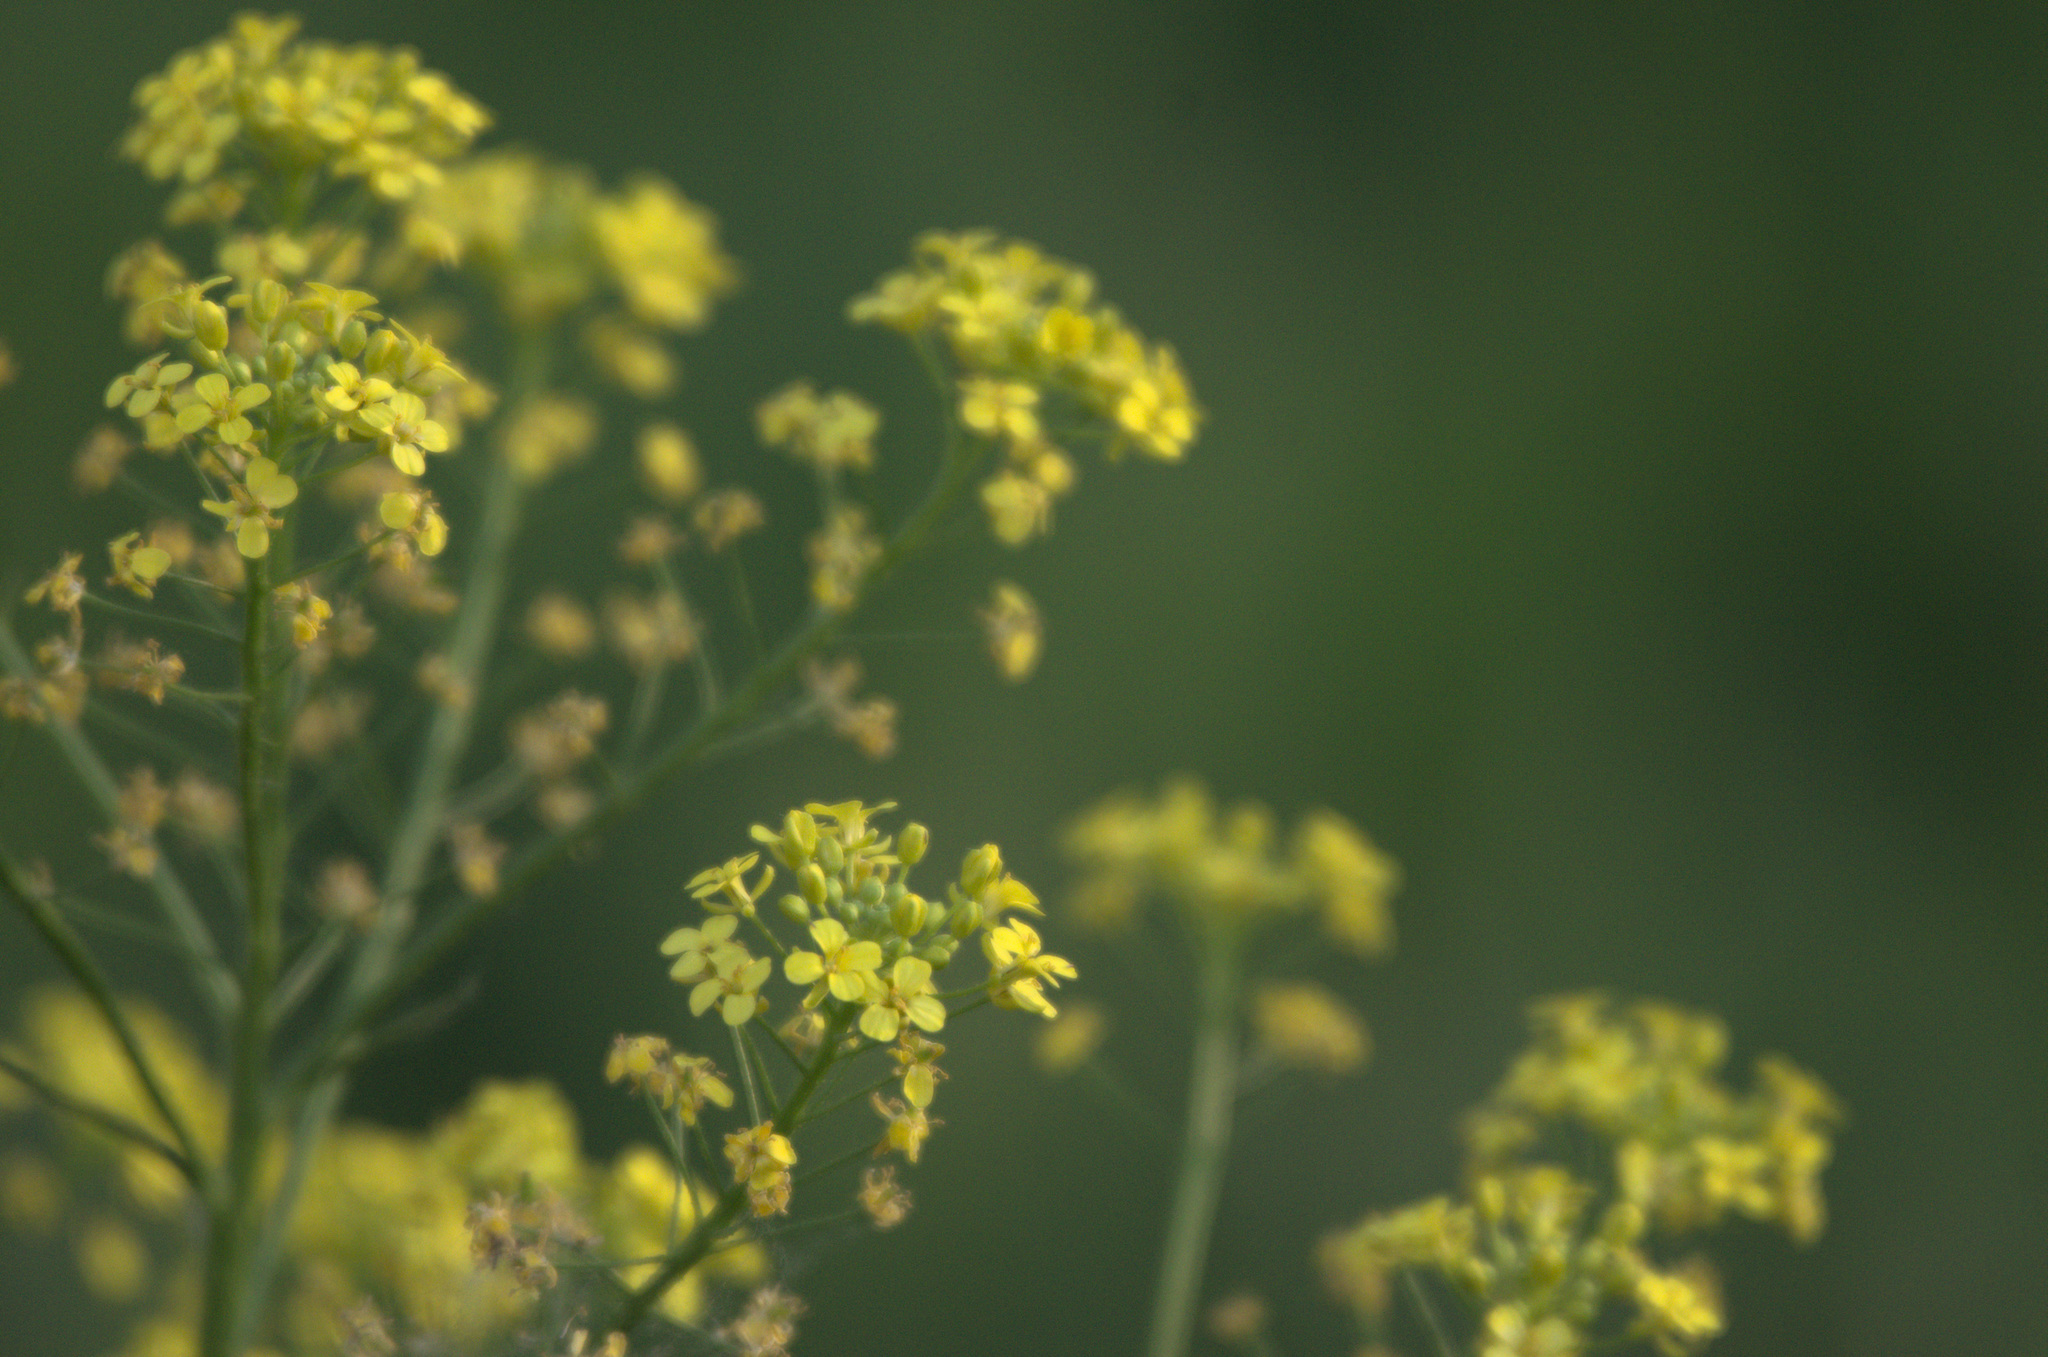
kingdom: Plantae
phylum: Tracheophyta
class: Magnoliopsida
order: Brassicales
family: Brassicaceae
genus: Bunias
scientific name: Bunias orientalis
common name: Warty-cabbage
